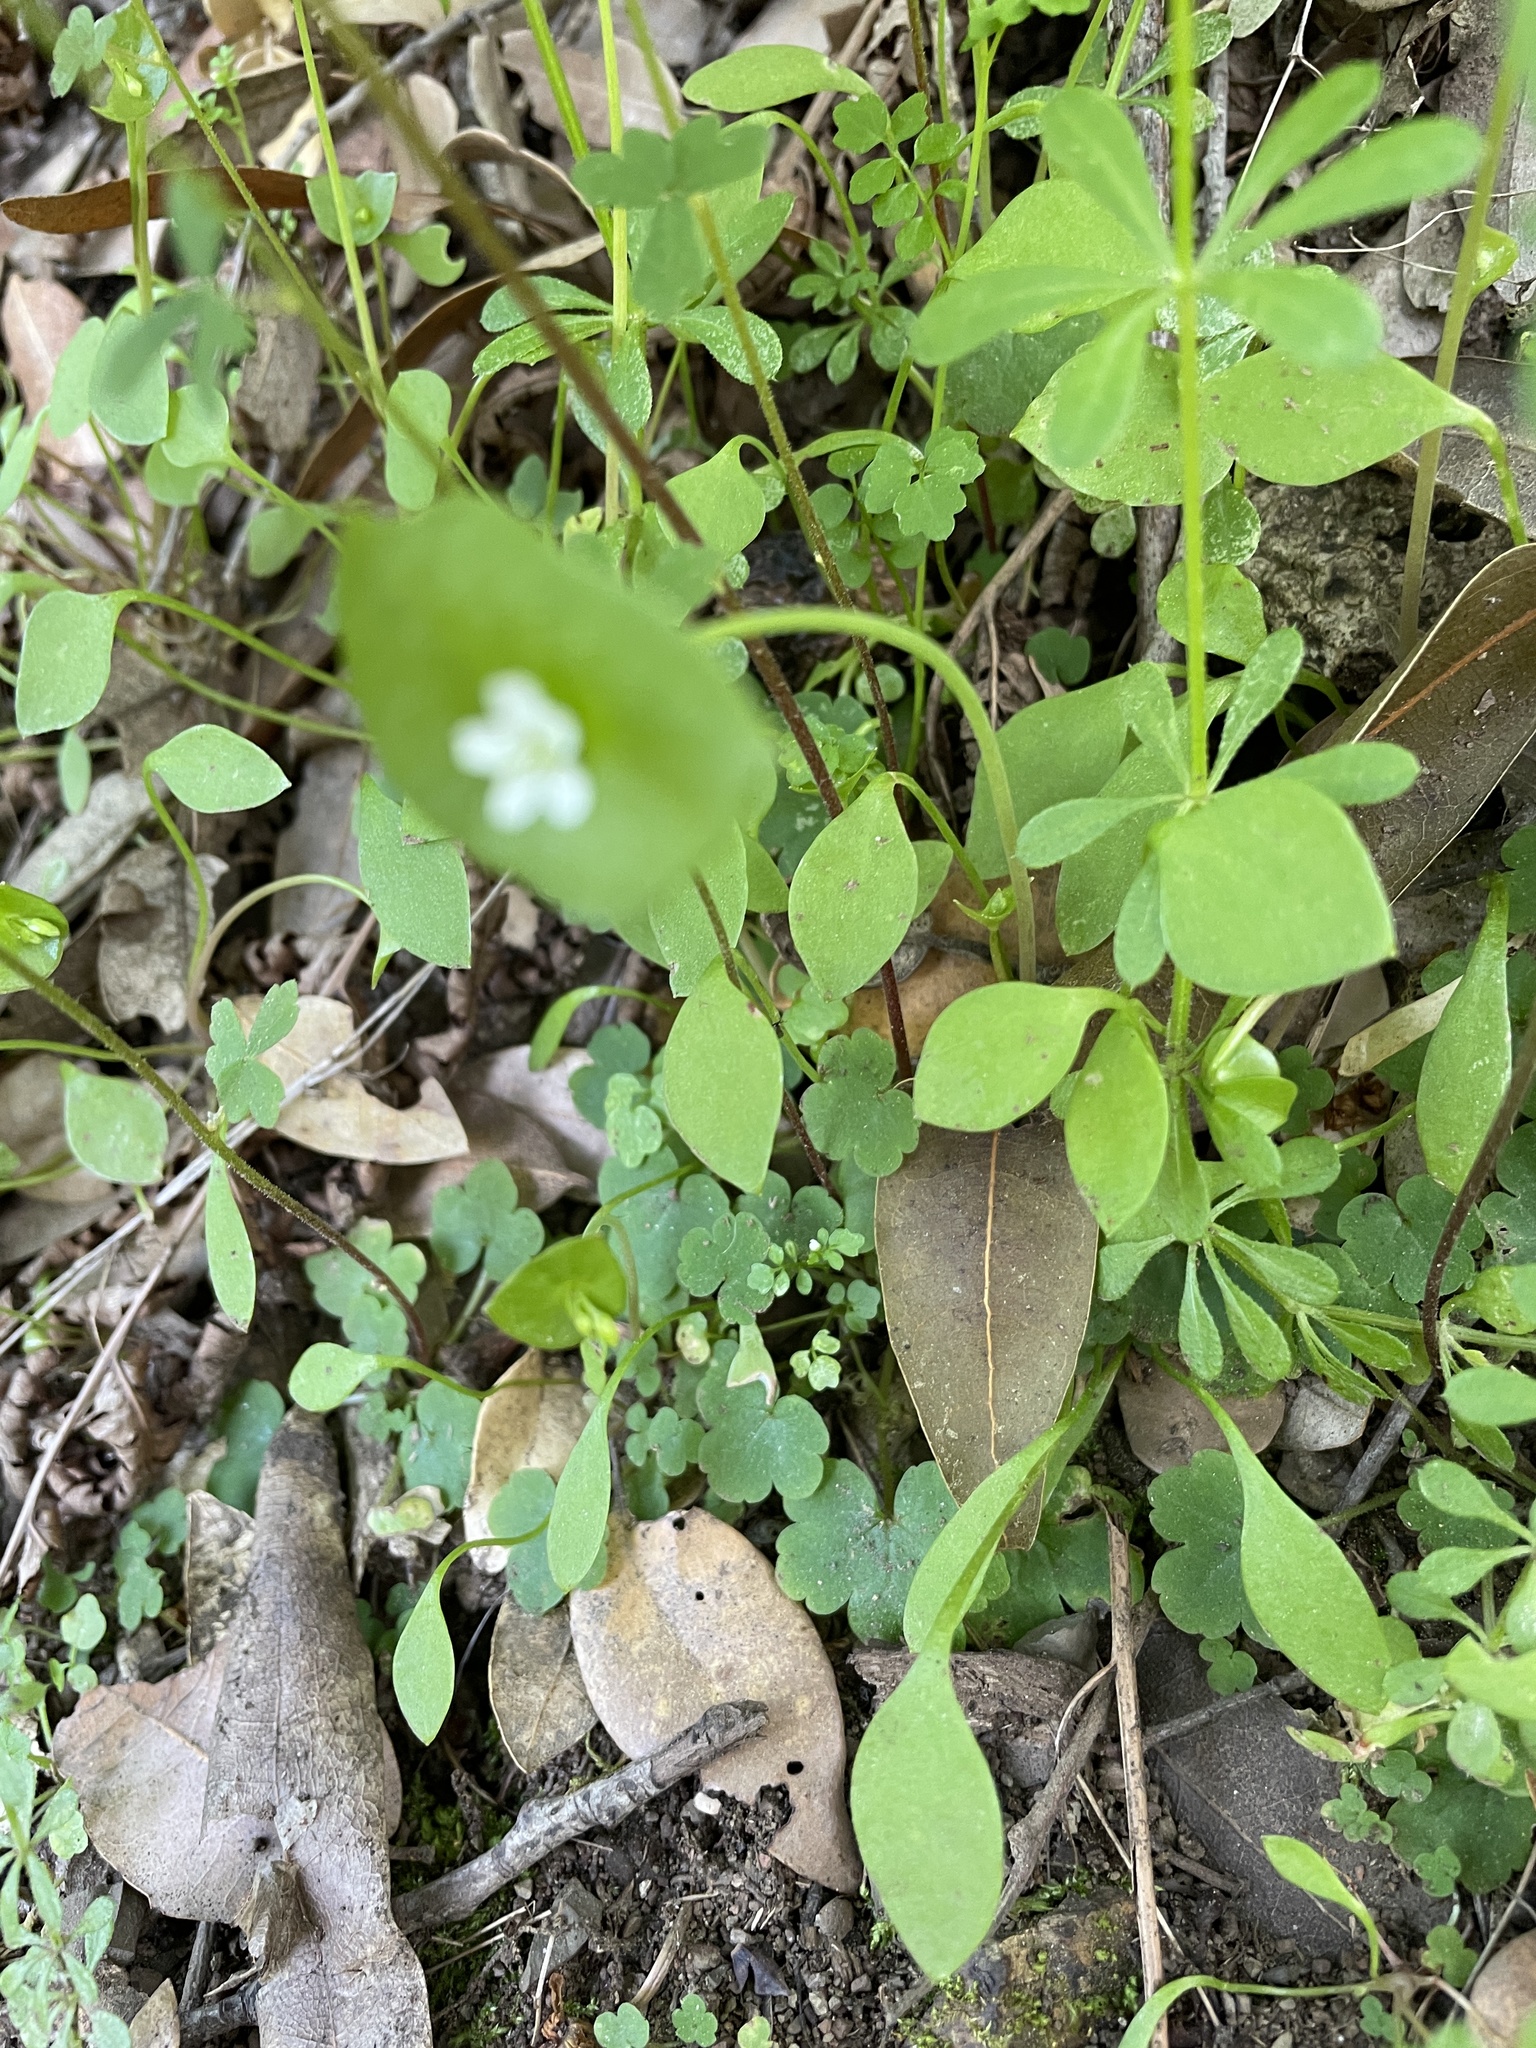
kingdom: Plantae
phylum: Tracheophyta
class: Magnoliopsida
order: Caryophyllales
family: Montiaceae
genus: Claytonia
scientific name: Claytonia perfoliata
